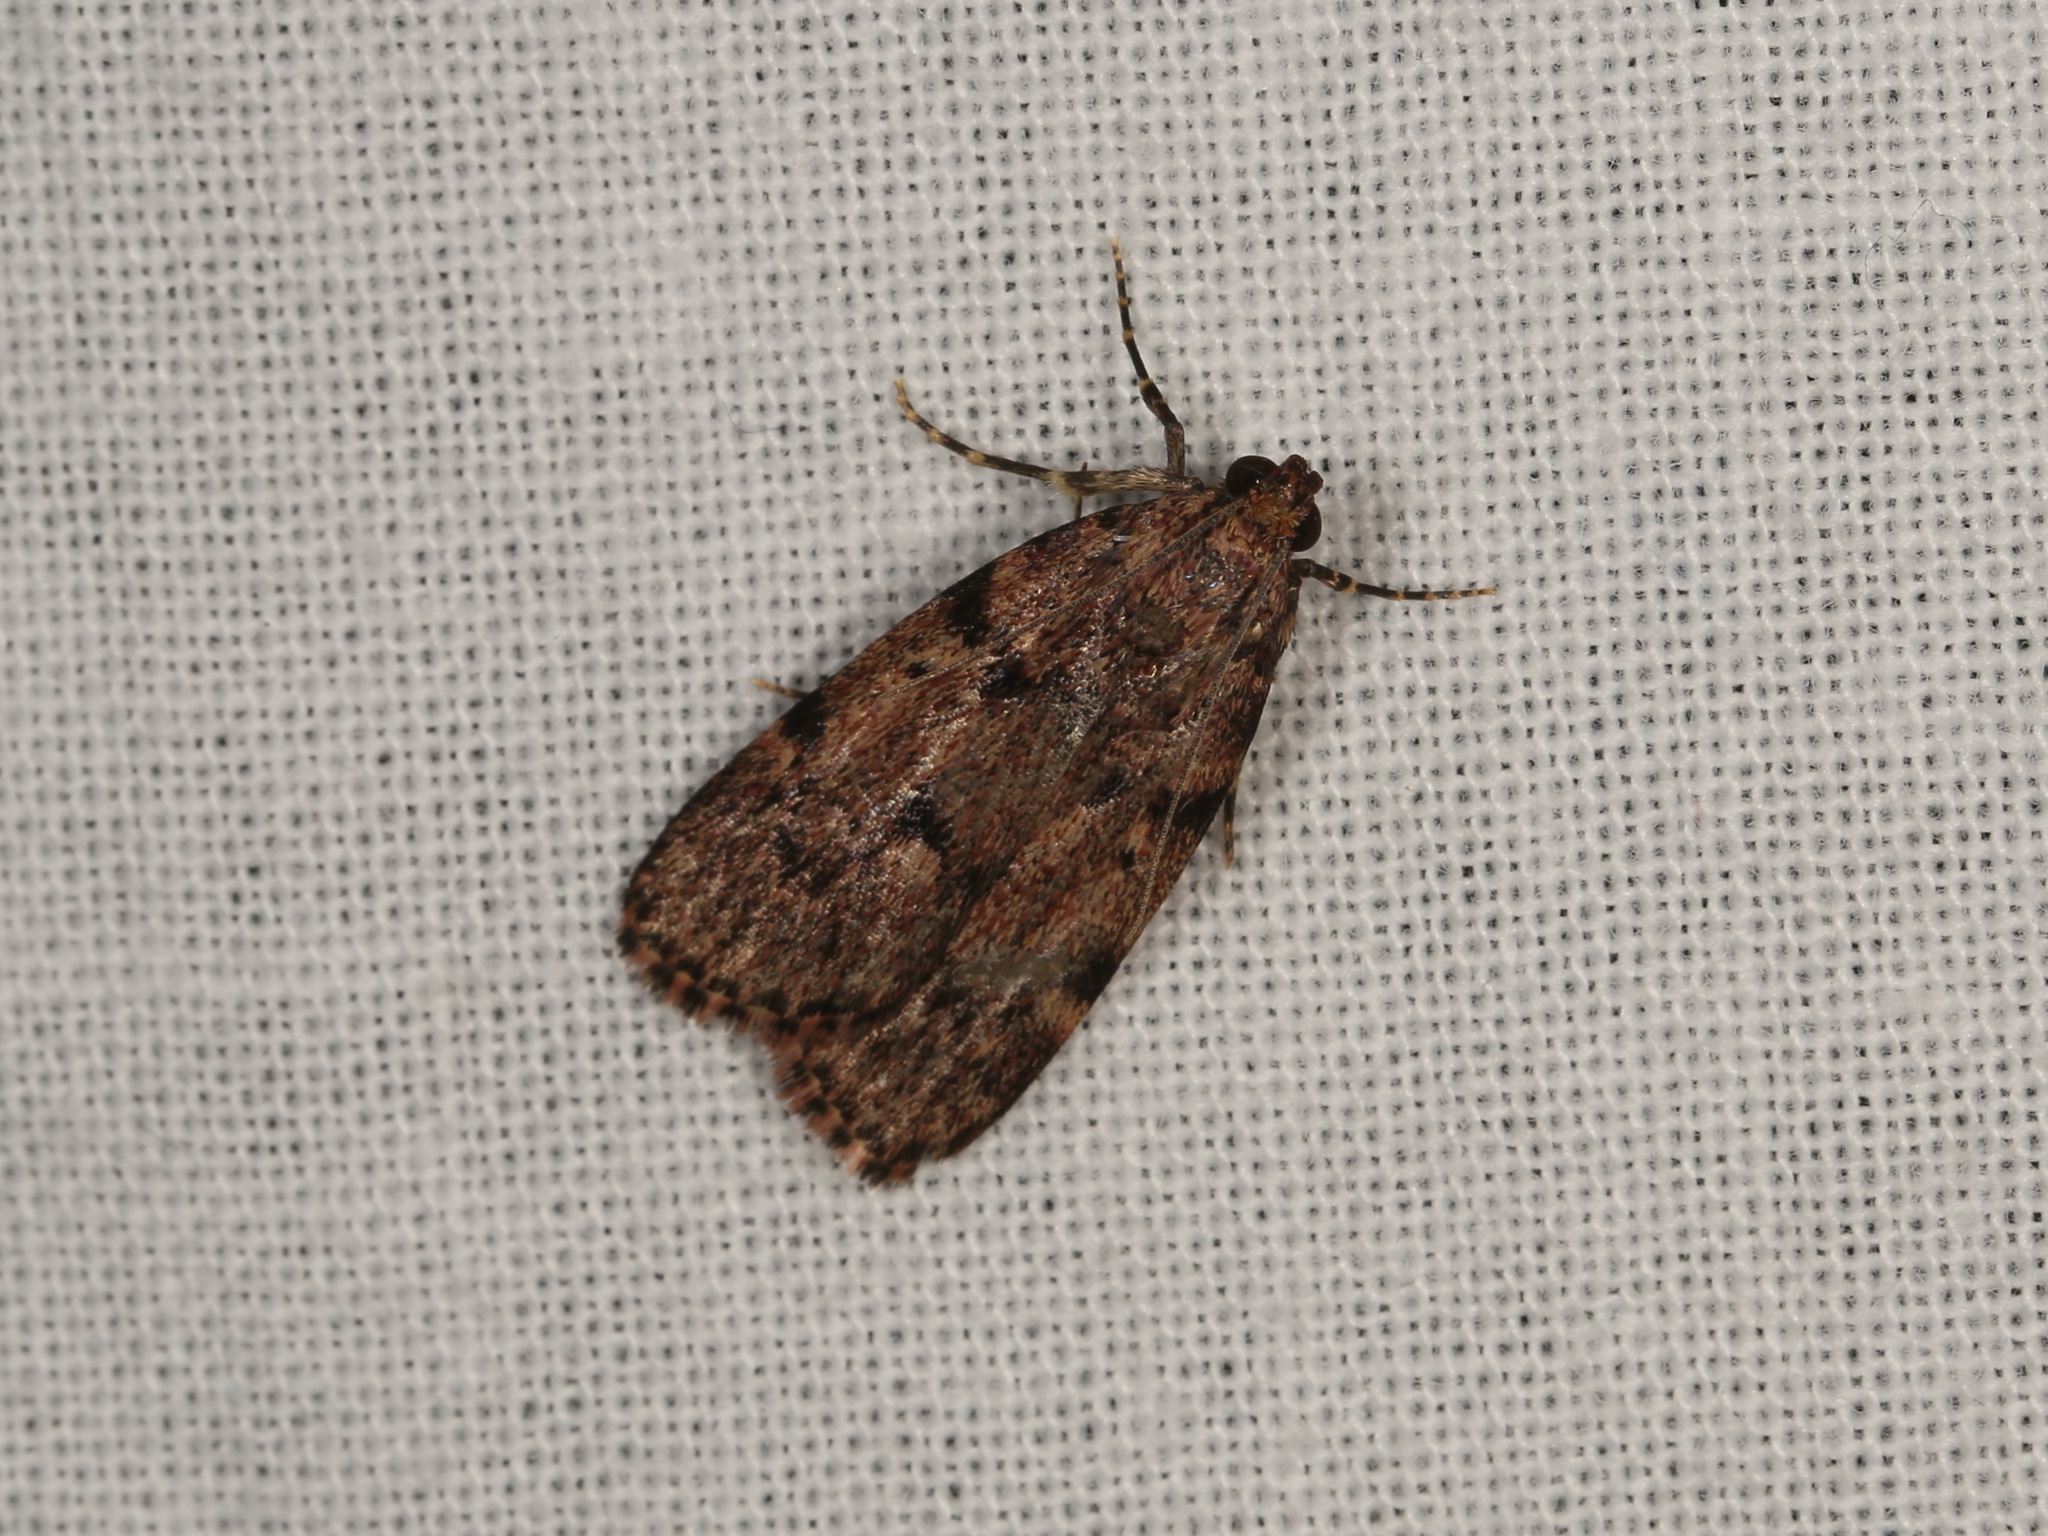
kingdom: Animalia
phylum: Arthropoda
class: Insecta
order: Lepidoptera
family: Pyralidae
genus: Mimaglossa
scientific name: Mimaglossa nauplialis
